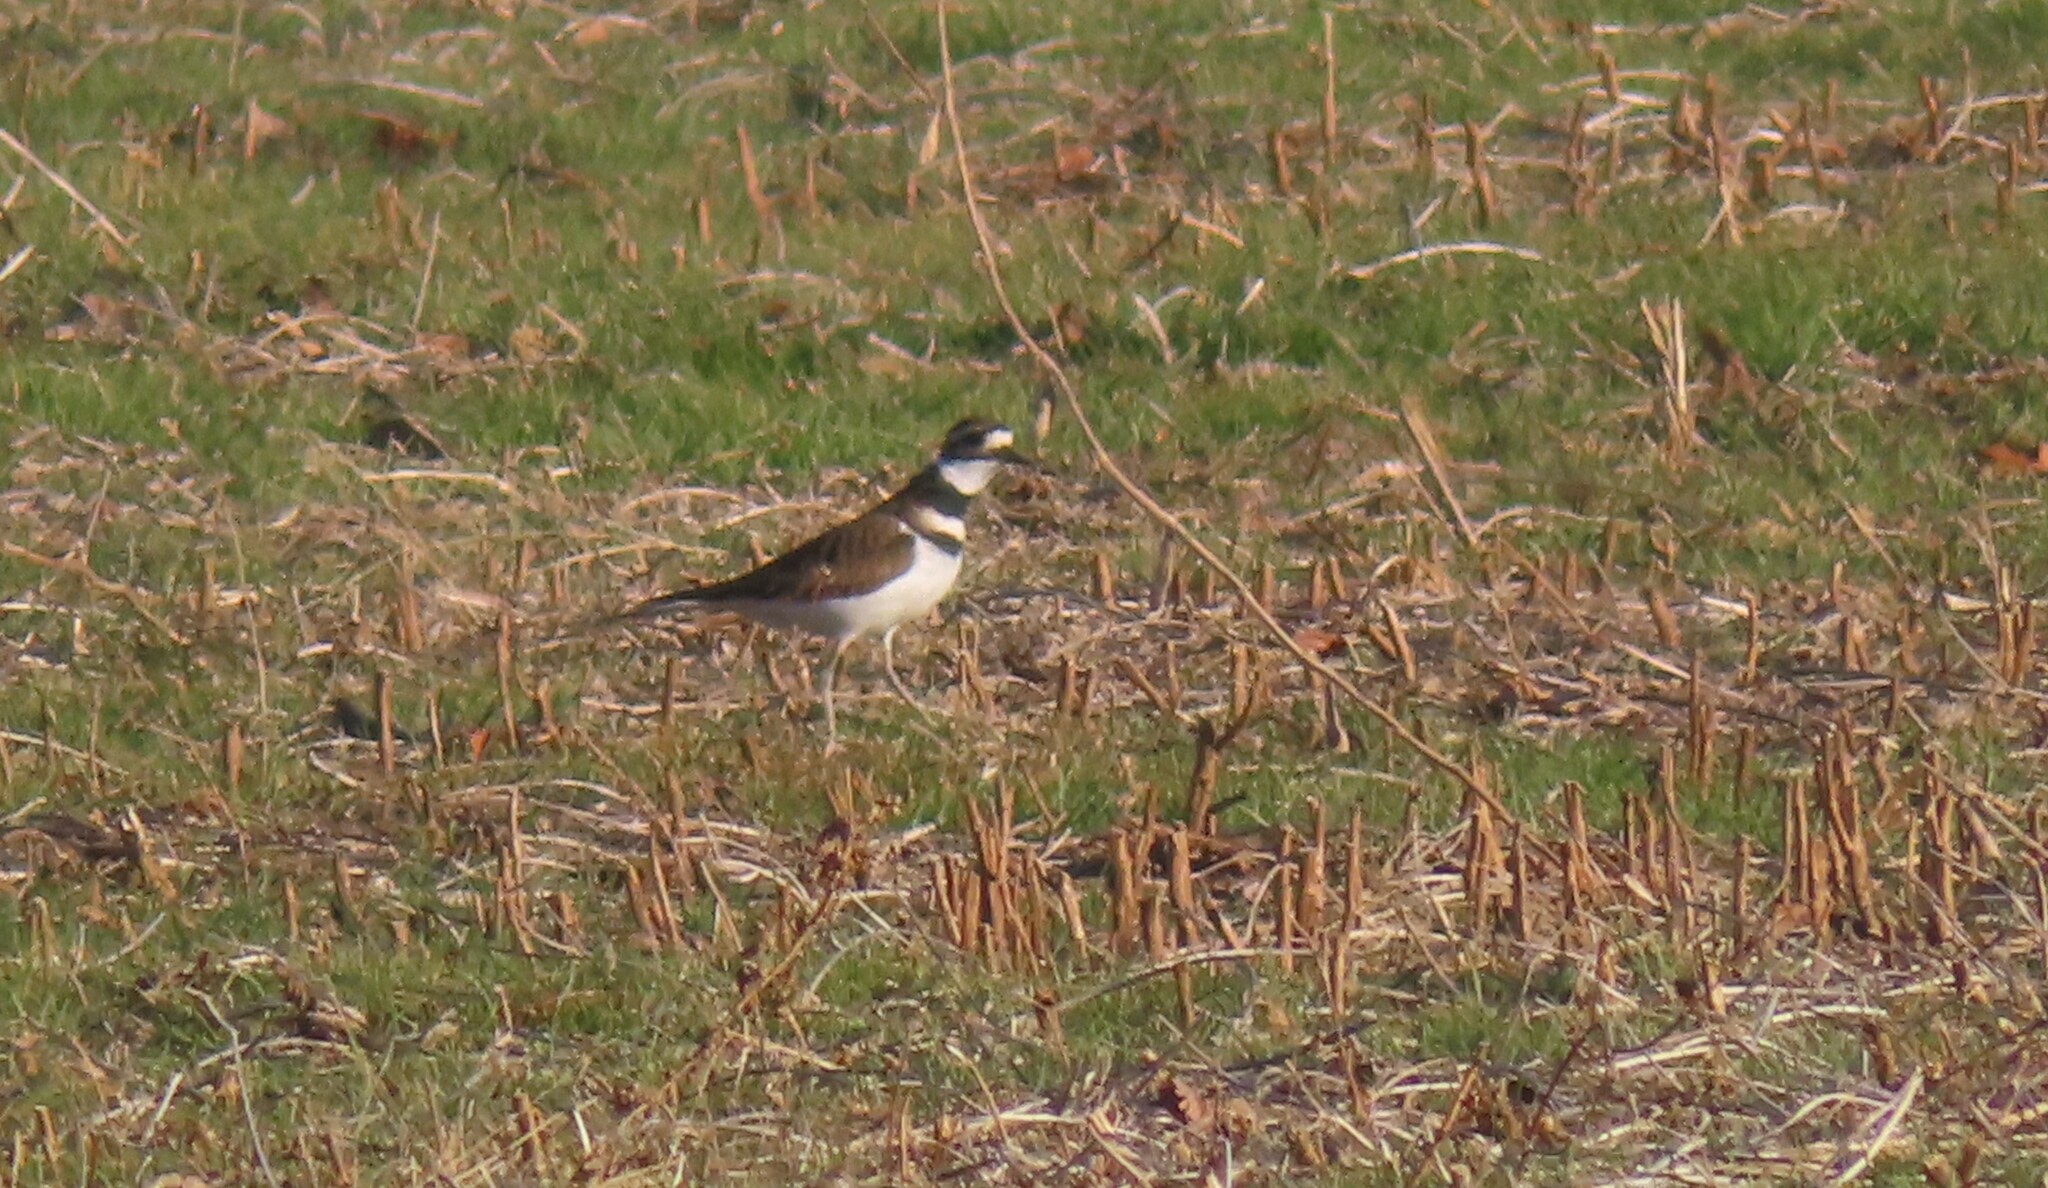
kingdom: Animalia
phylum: Chordata
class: Aves
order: Charadriiformes
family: Charadriidae
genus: Charadrius
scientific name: Charadrius vociferus
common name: Killdeer
